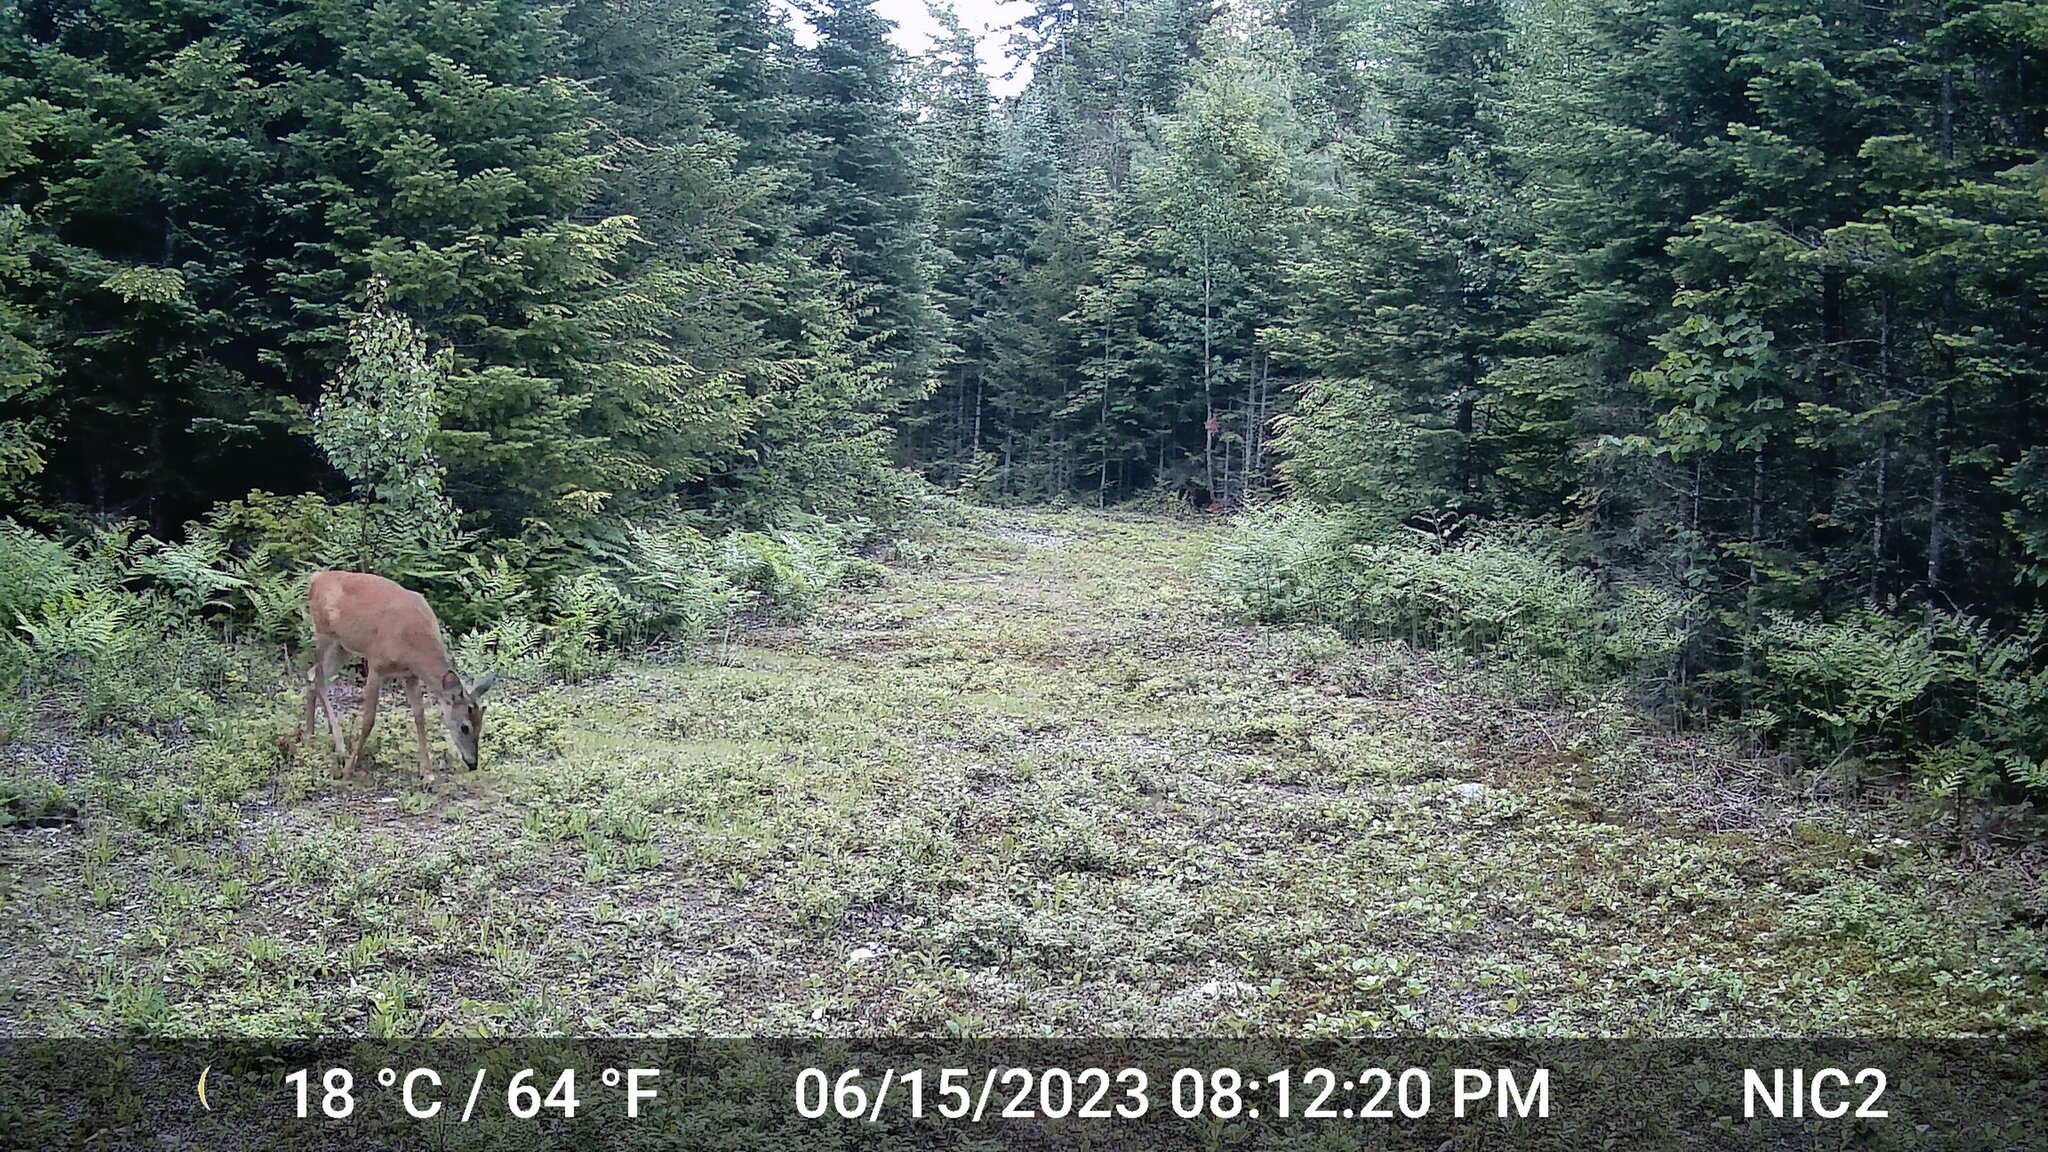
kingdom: Animalia
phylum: Chordata
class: Mammalia
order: Artiodactyla
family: Cervidae
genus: Odocoileus
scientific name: Odocoileus virginianus
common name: White-tailed deer
